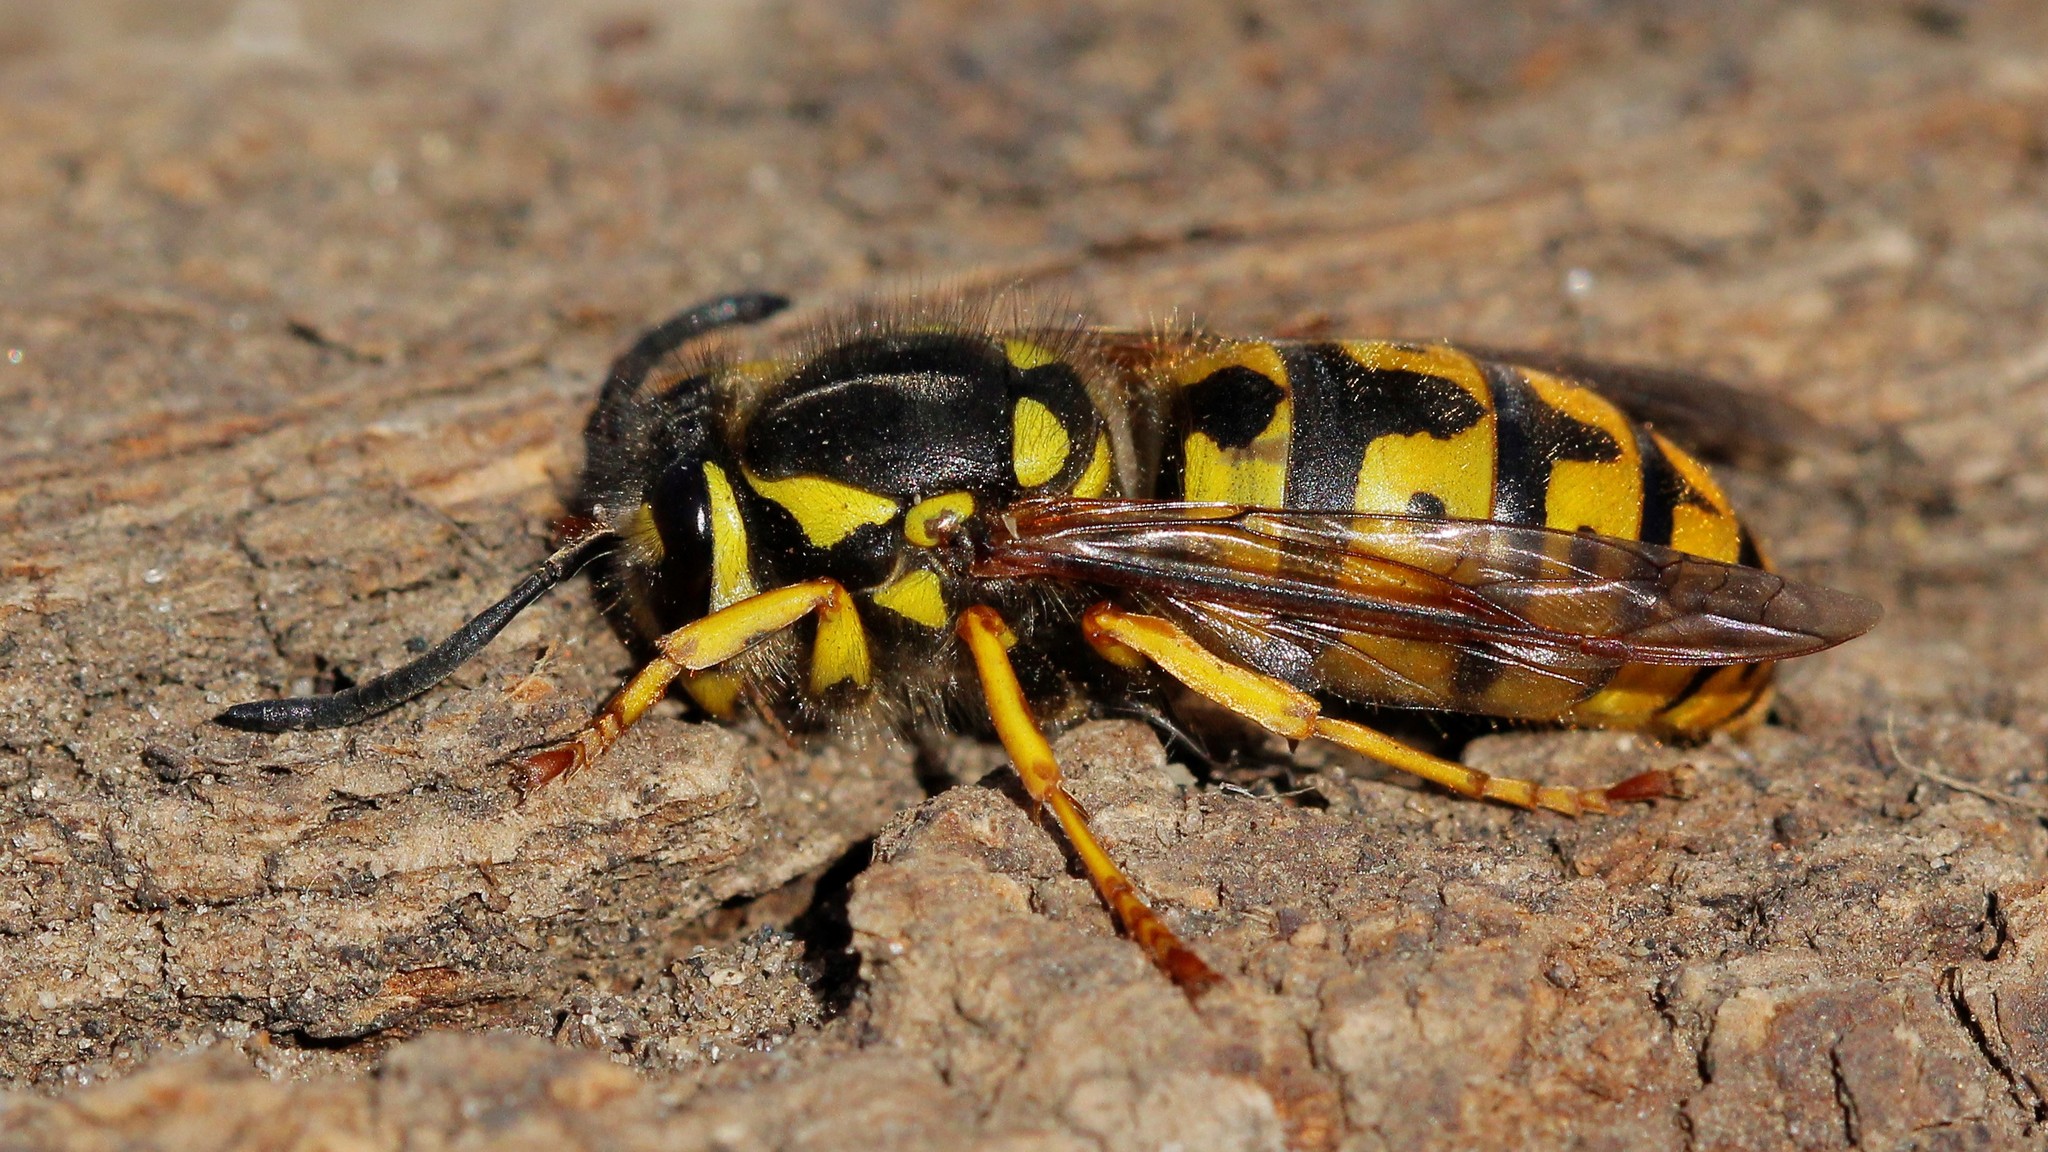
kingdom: Animalia
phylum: Arthropoda
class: Insecta
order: Hymenoptera
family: Vespidae
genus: Vespula
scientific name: Vespula germanica
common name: German wasp
